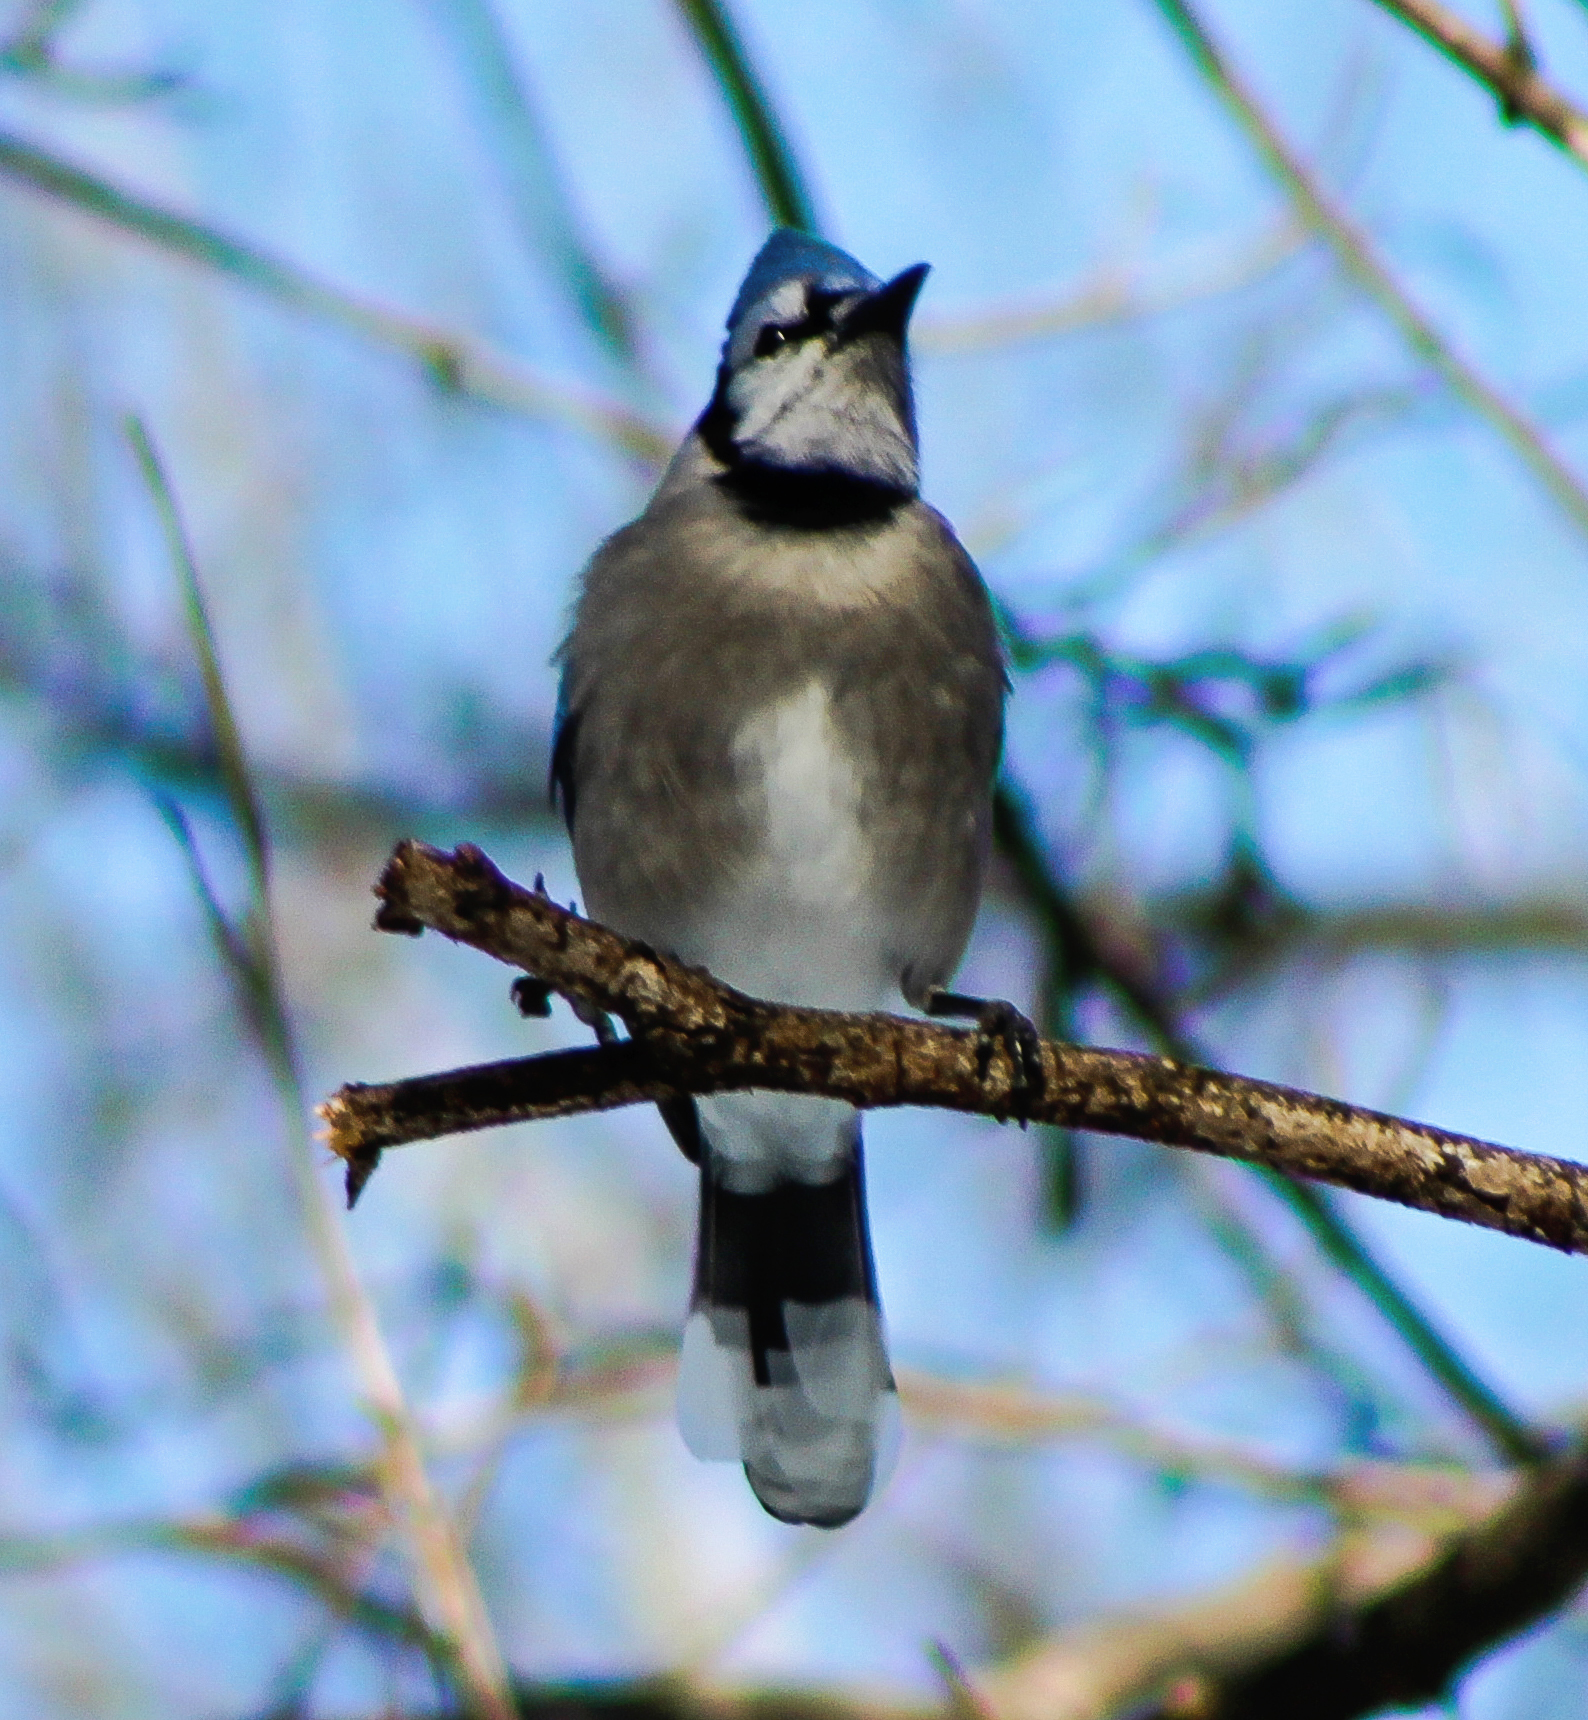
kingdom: Animalia
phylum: Chordata
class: Aves
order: Passeriformes
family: Corvidae
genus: Cyanocitta
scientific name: Cyanocitta cristata
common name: Blue jay
